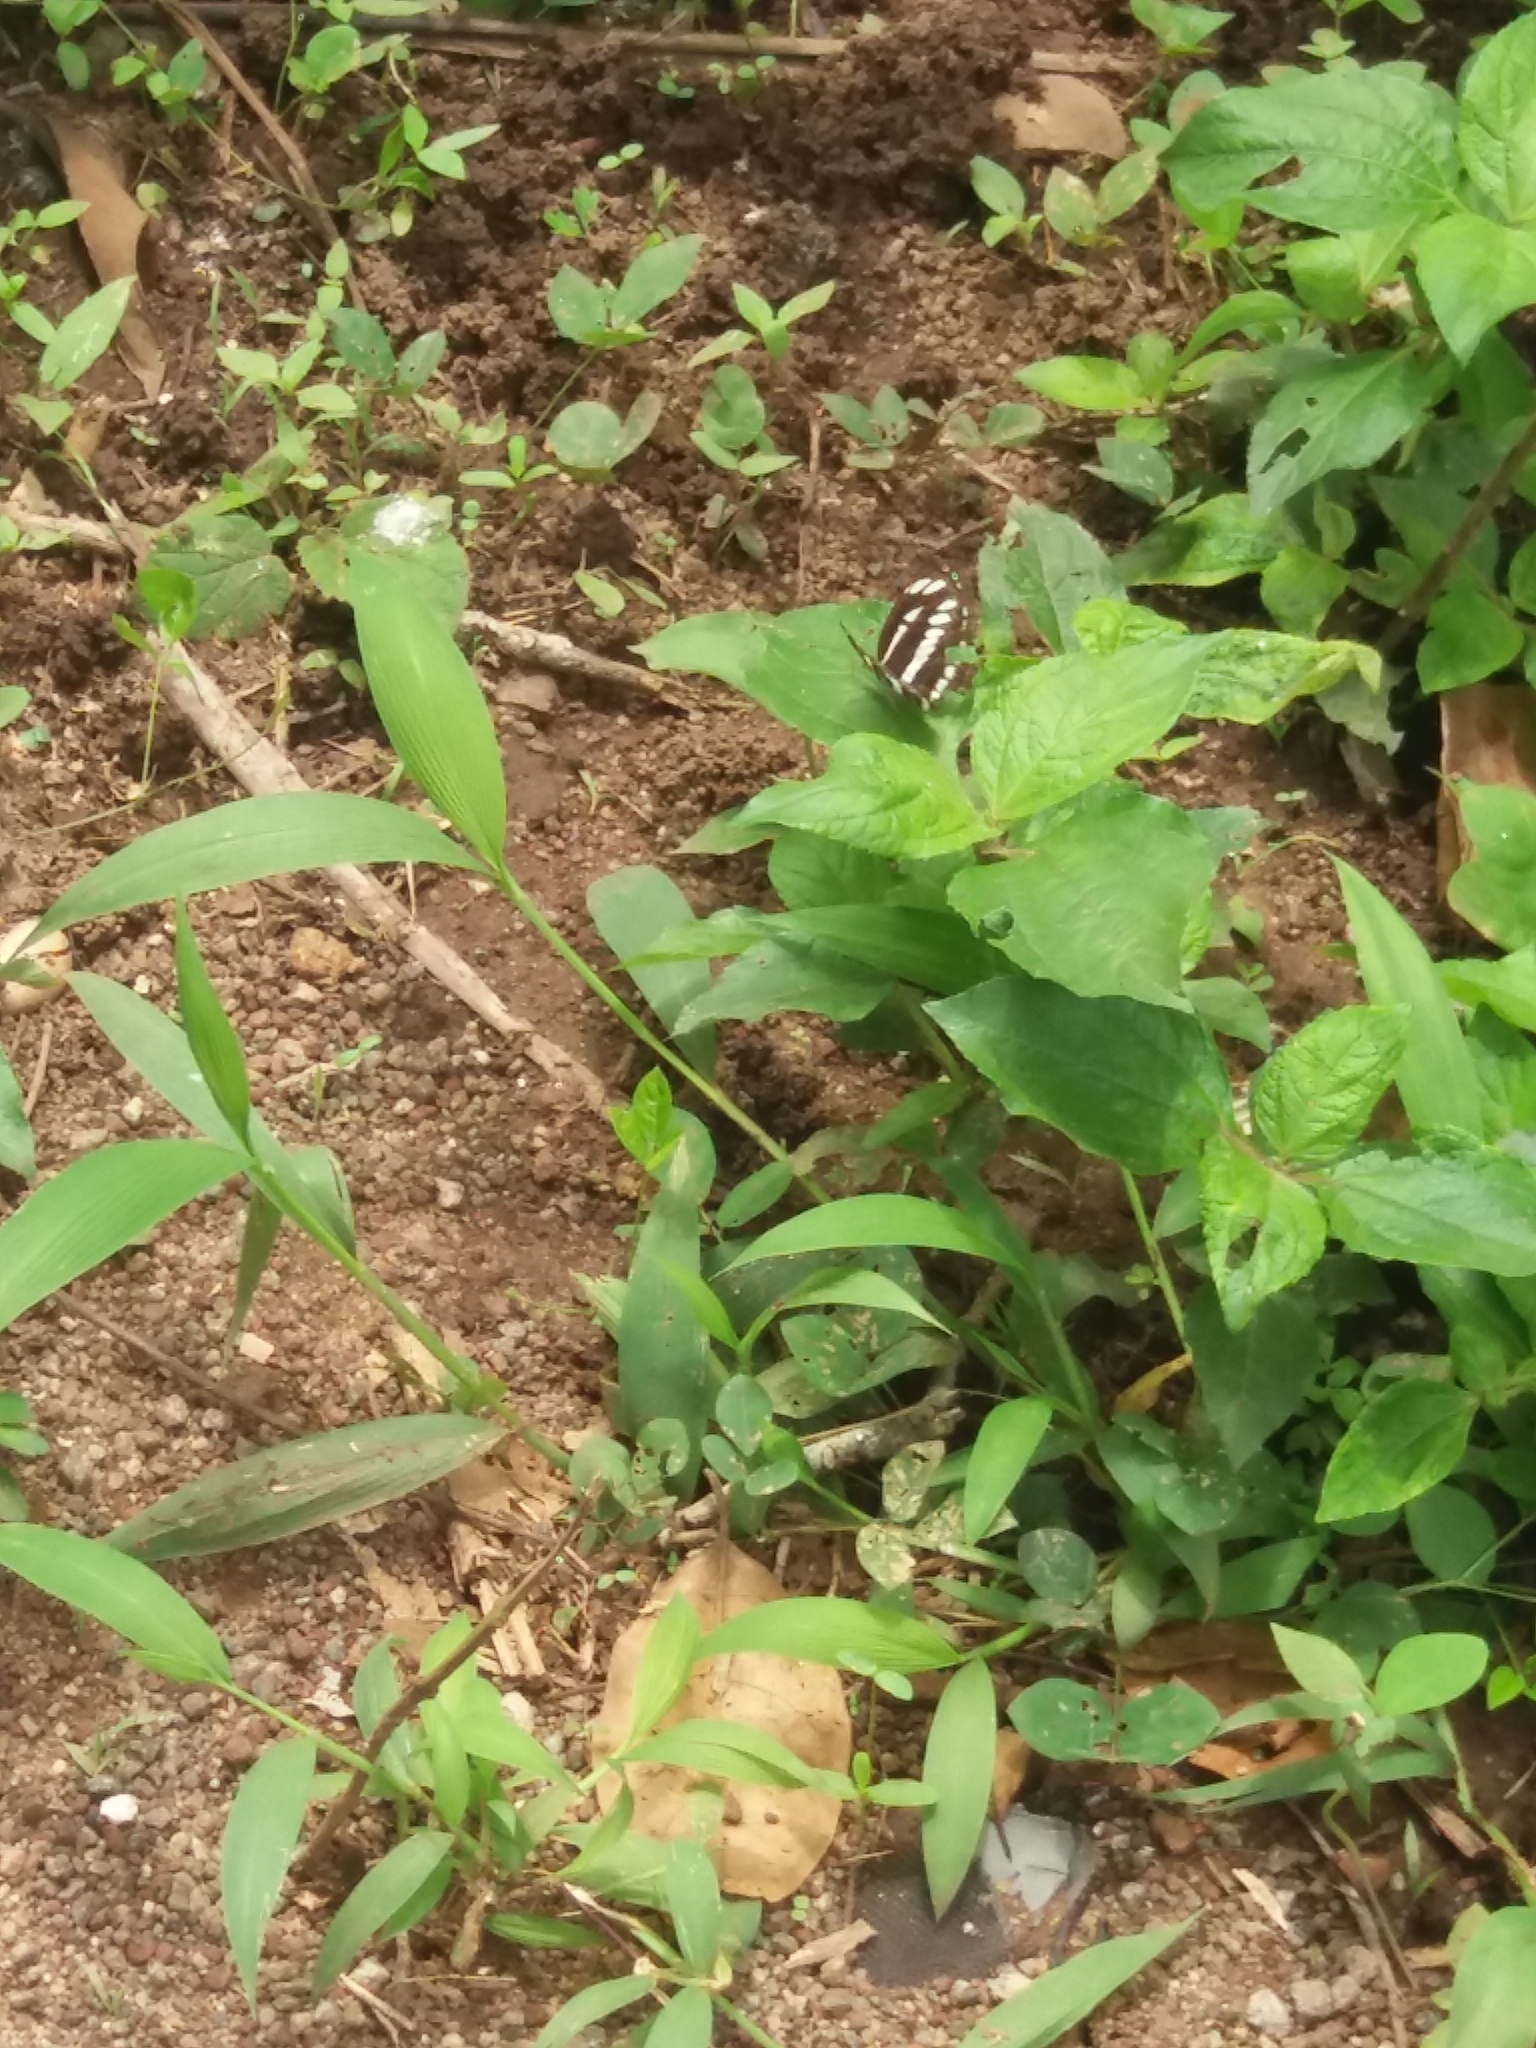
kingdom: Animalia
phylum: Arthropoda
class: Insecta
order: Lepidoptera
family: Nymphalidae
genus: Neptis
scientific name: Neptis hylas
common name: Common sailer
